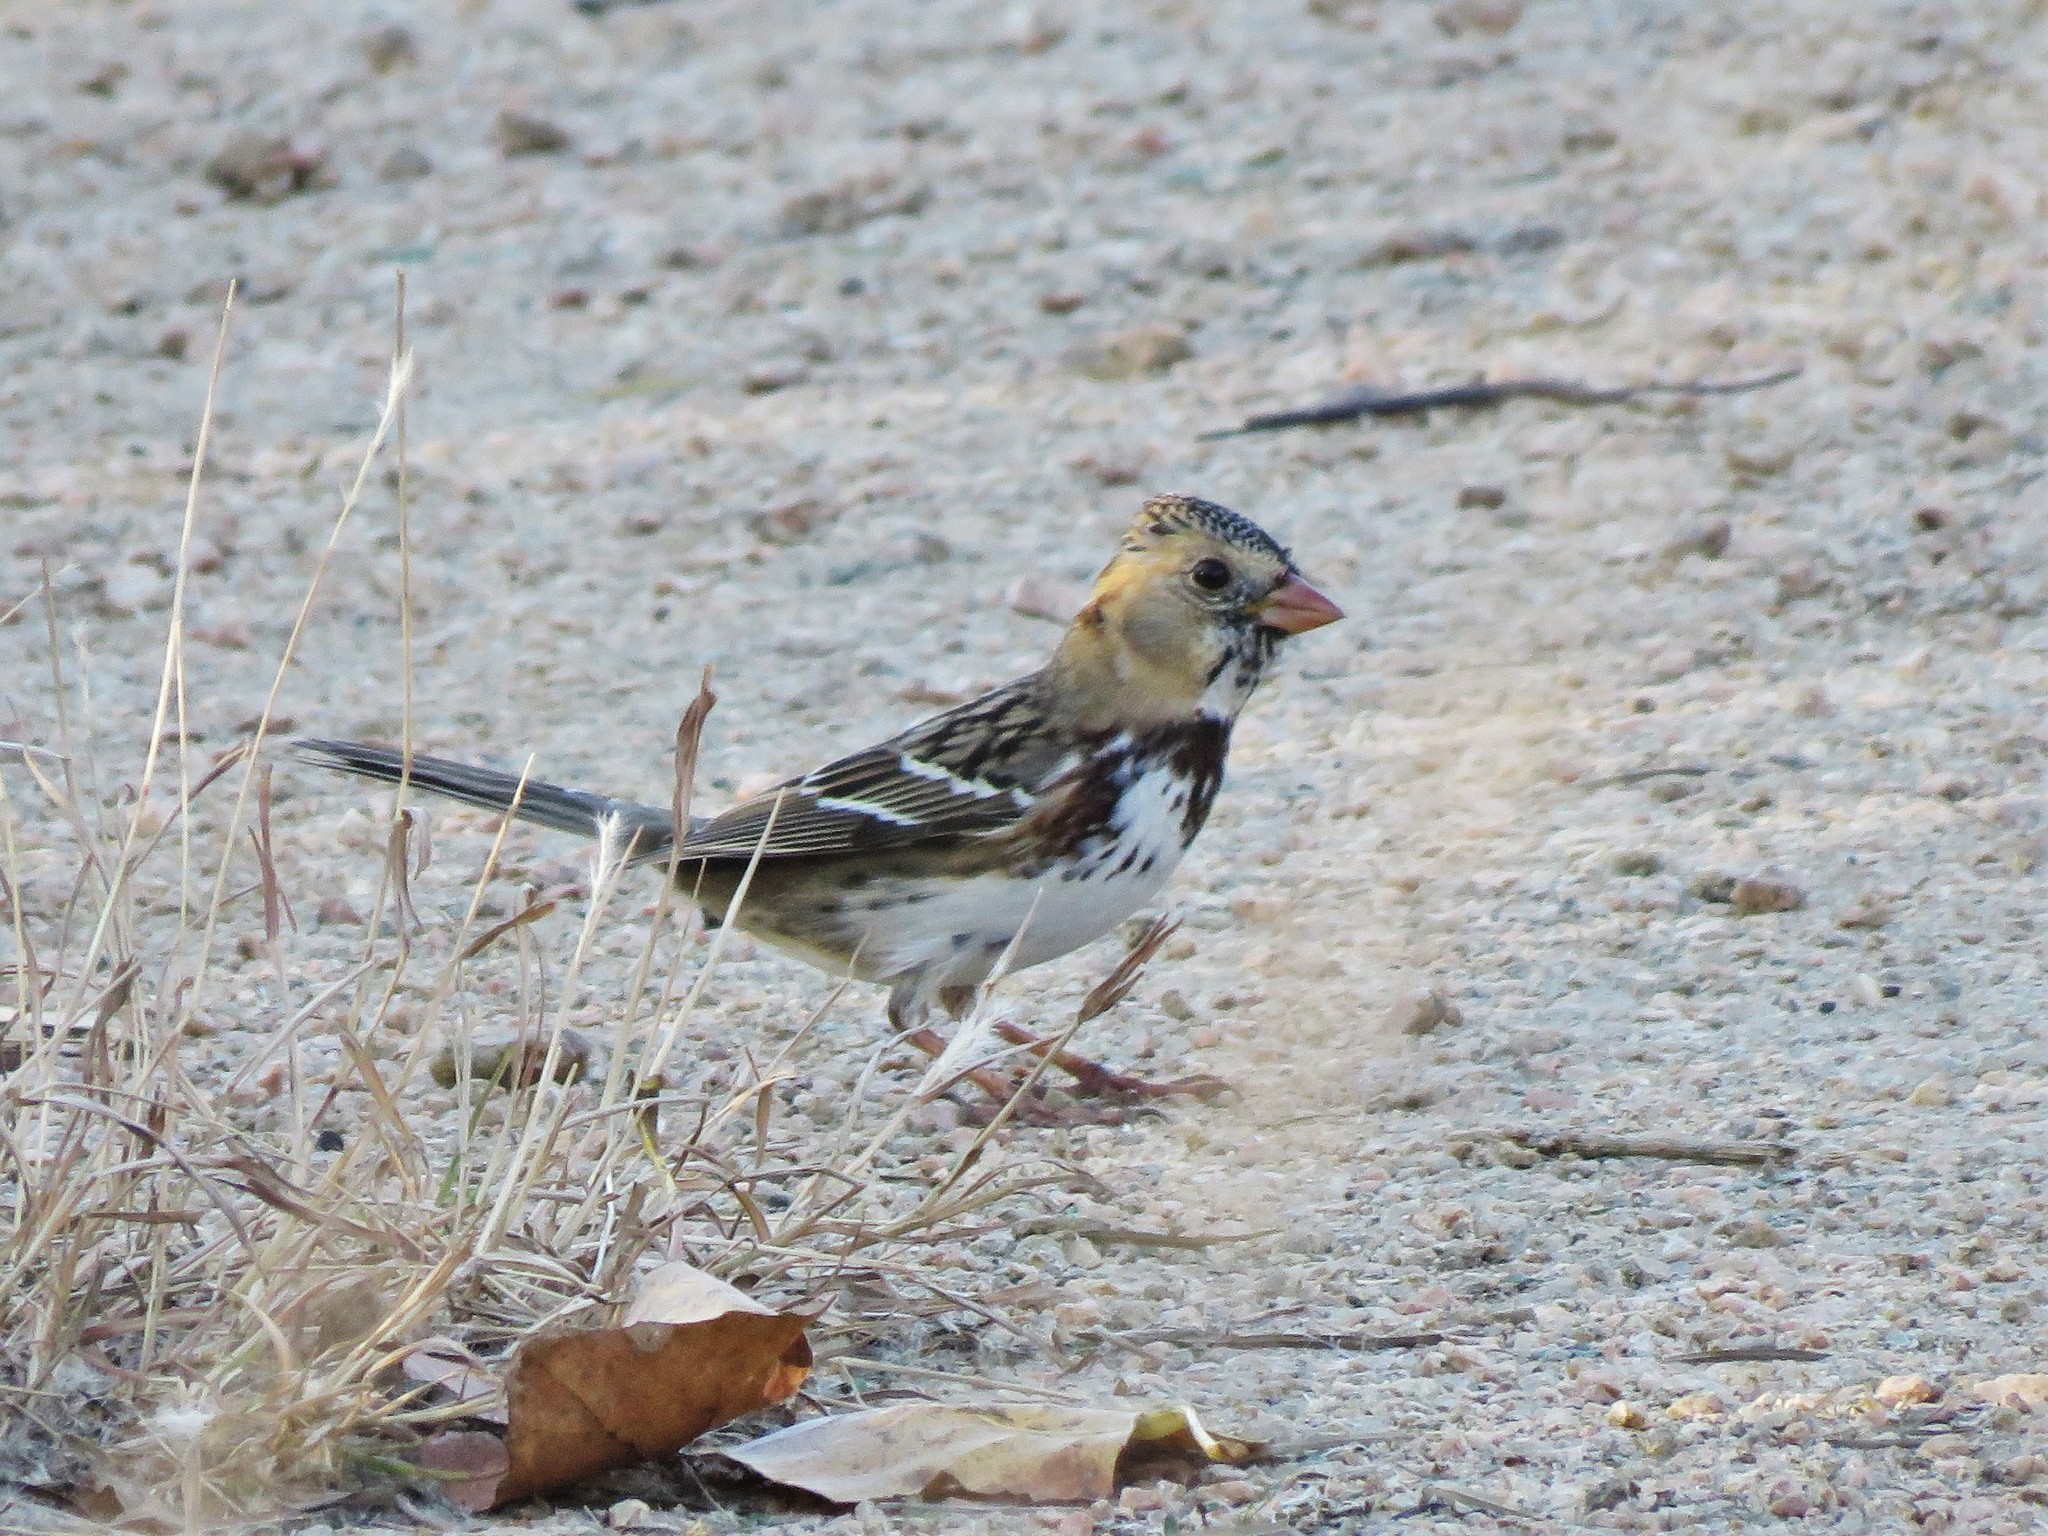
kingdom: Animalia
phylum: Chordata
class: Aves
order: Passeriformes
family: Passerellidae
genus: Zonotrichia
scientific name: Zonotrichia querula
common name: Harris's sparrow
